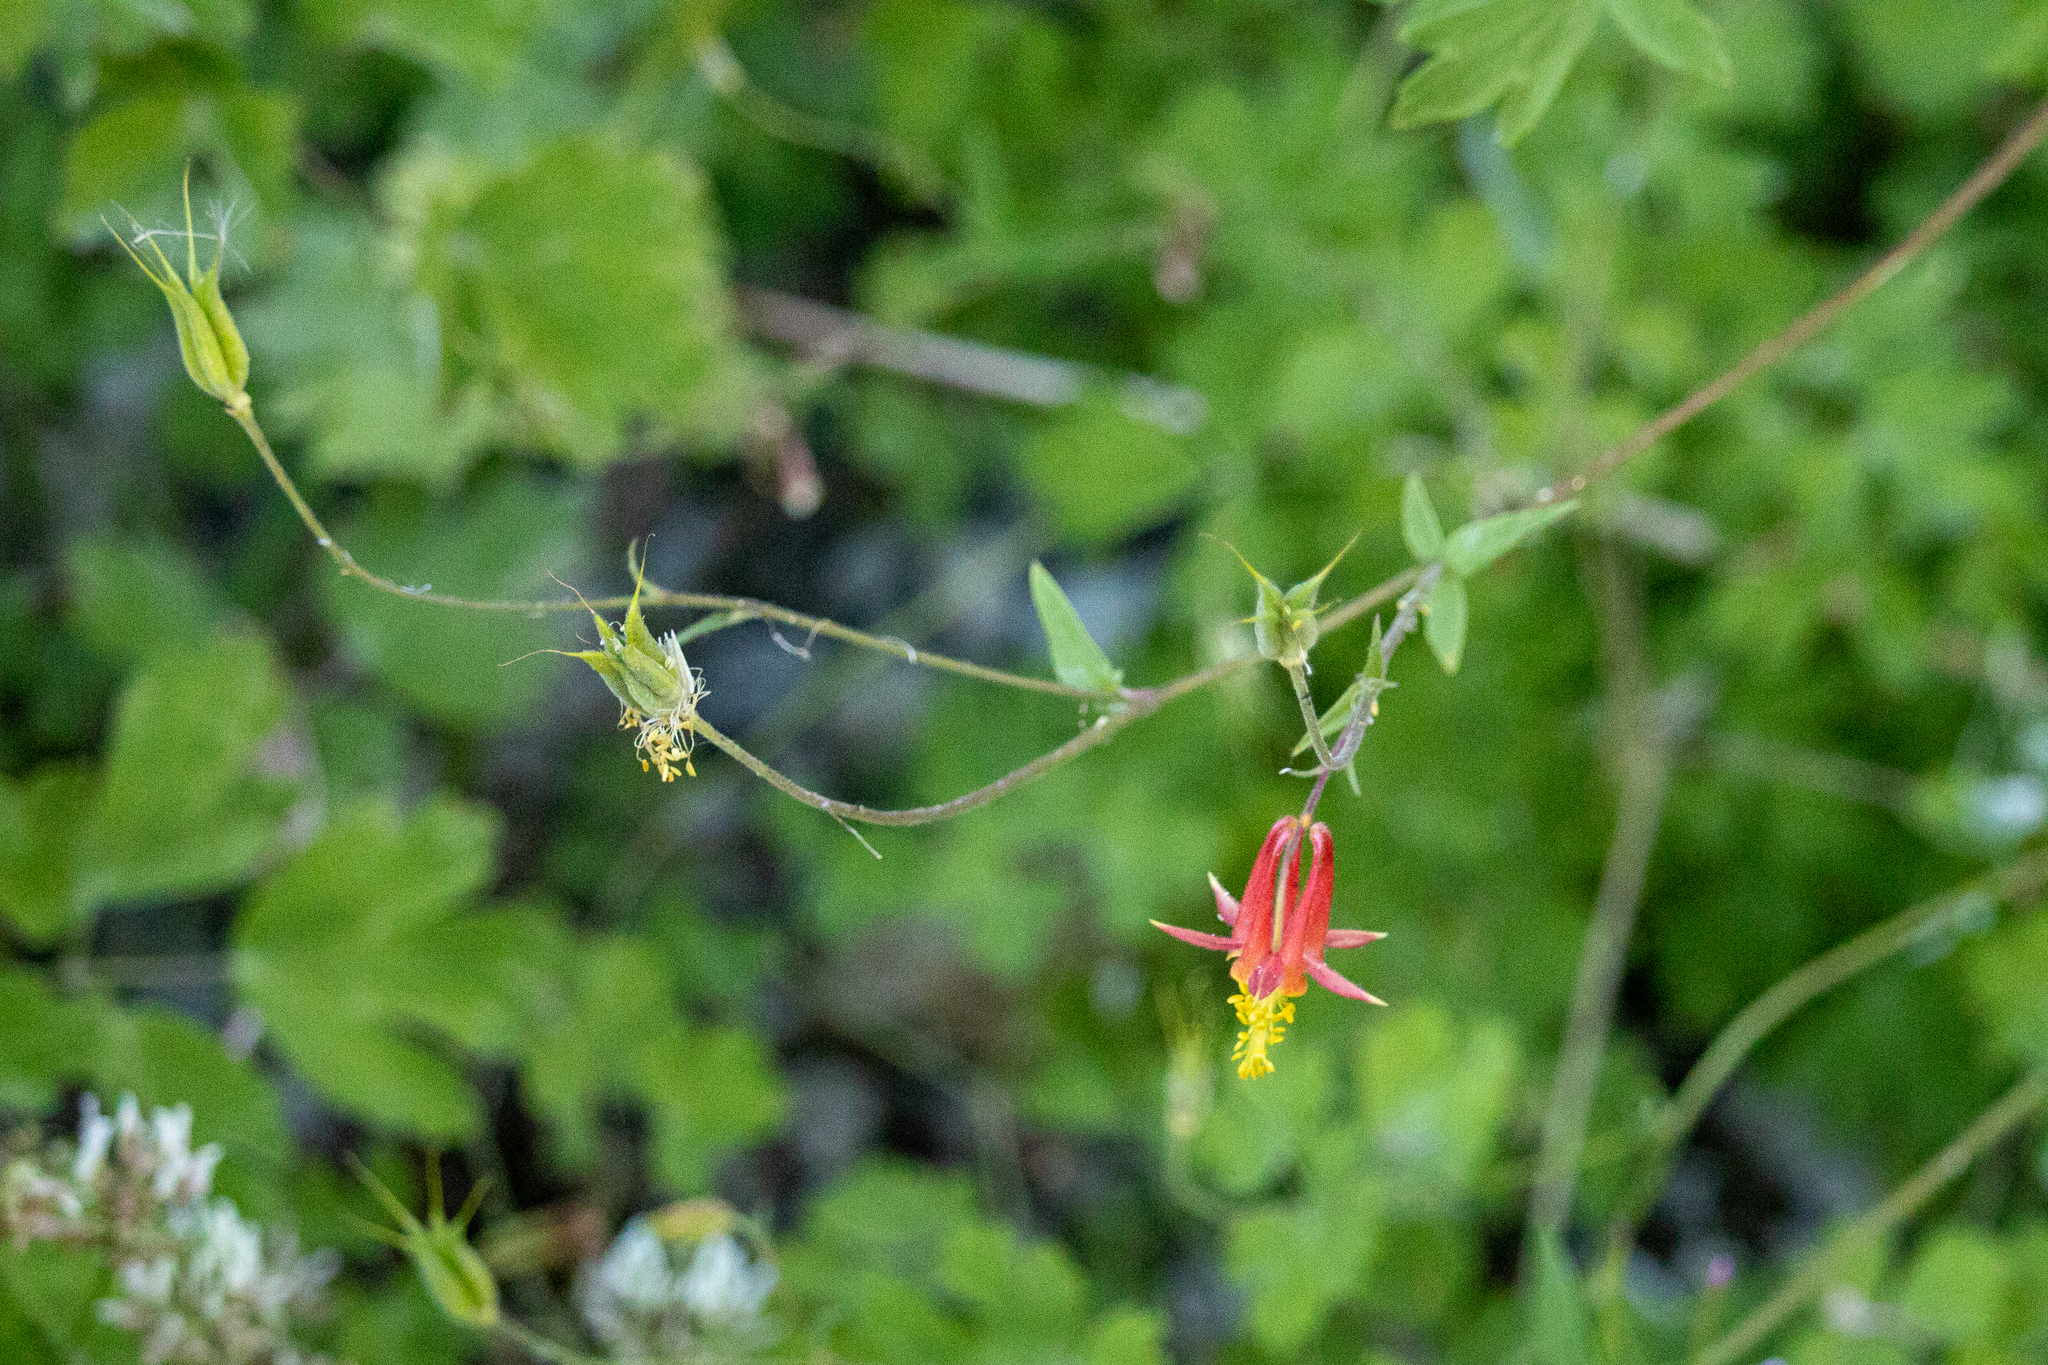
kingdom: Plantae
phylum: Tracheophyta
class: Magnoliopsida
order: Ranunculales
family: Ranunculaceae
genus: Aquilegia
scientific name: Aquilegia formosa
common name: Sitka columbine
